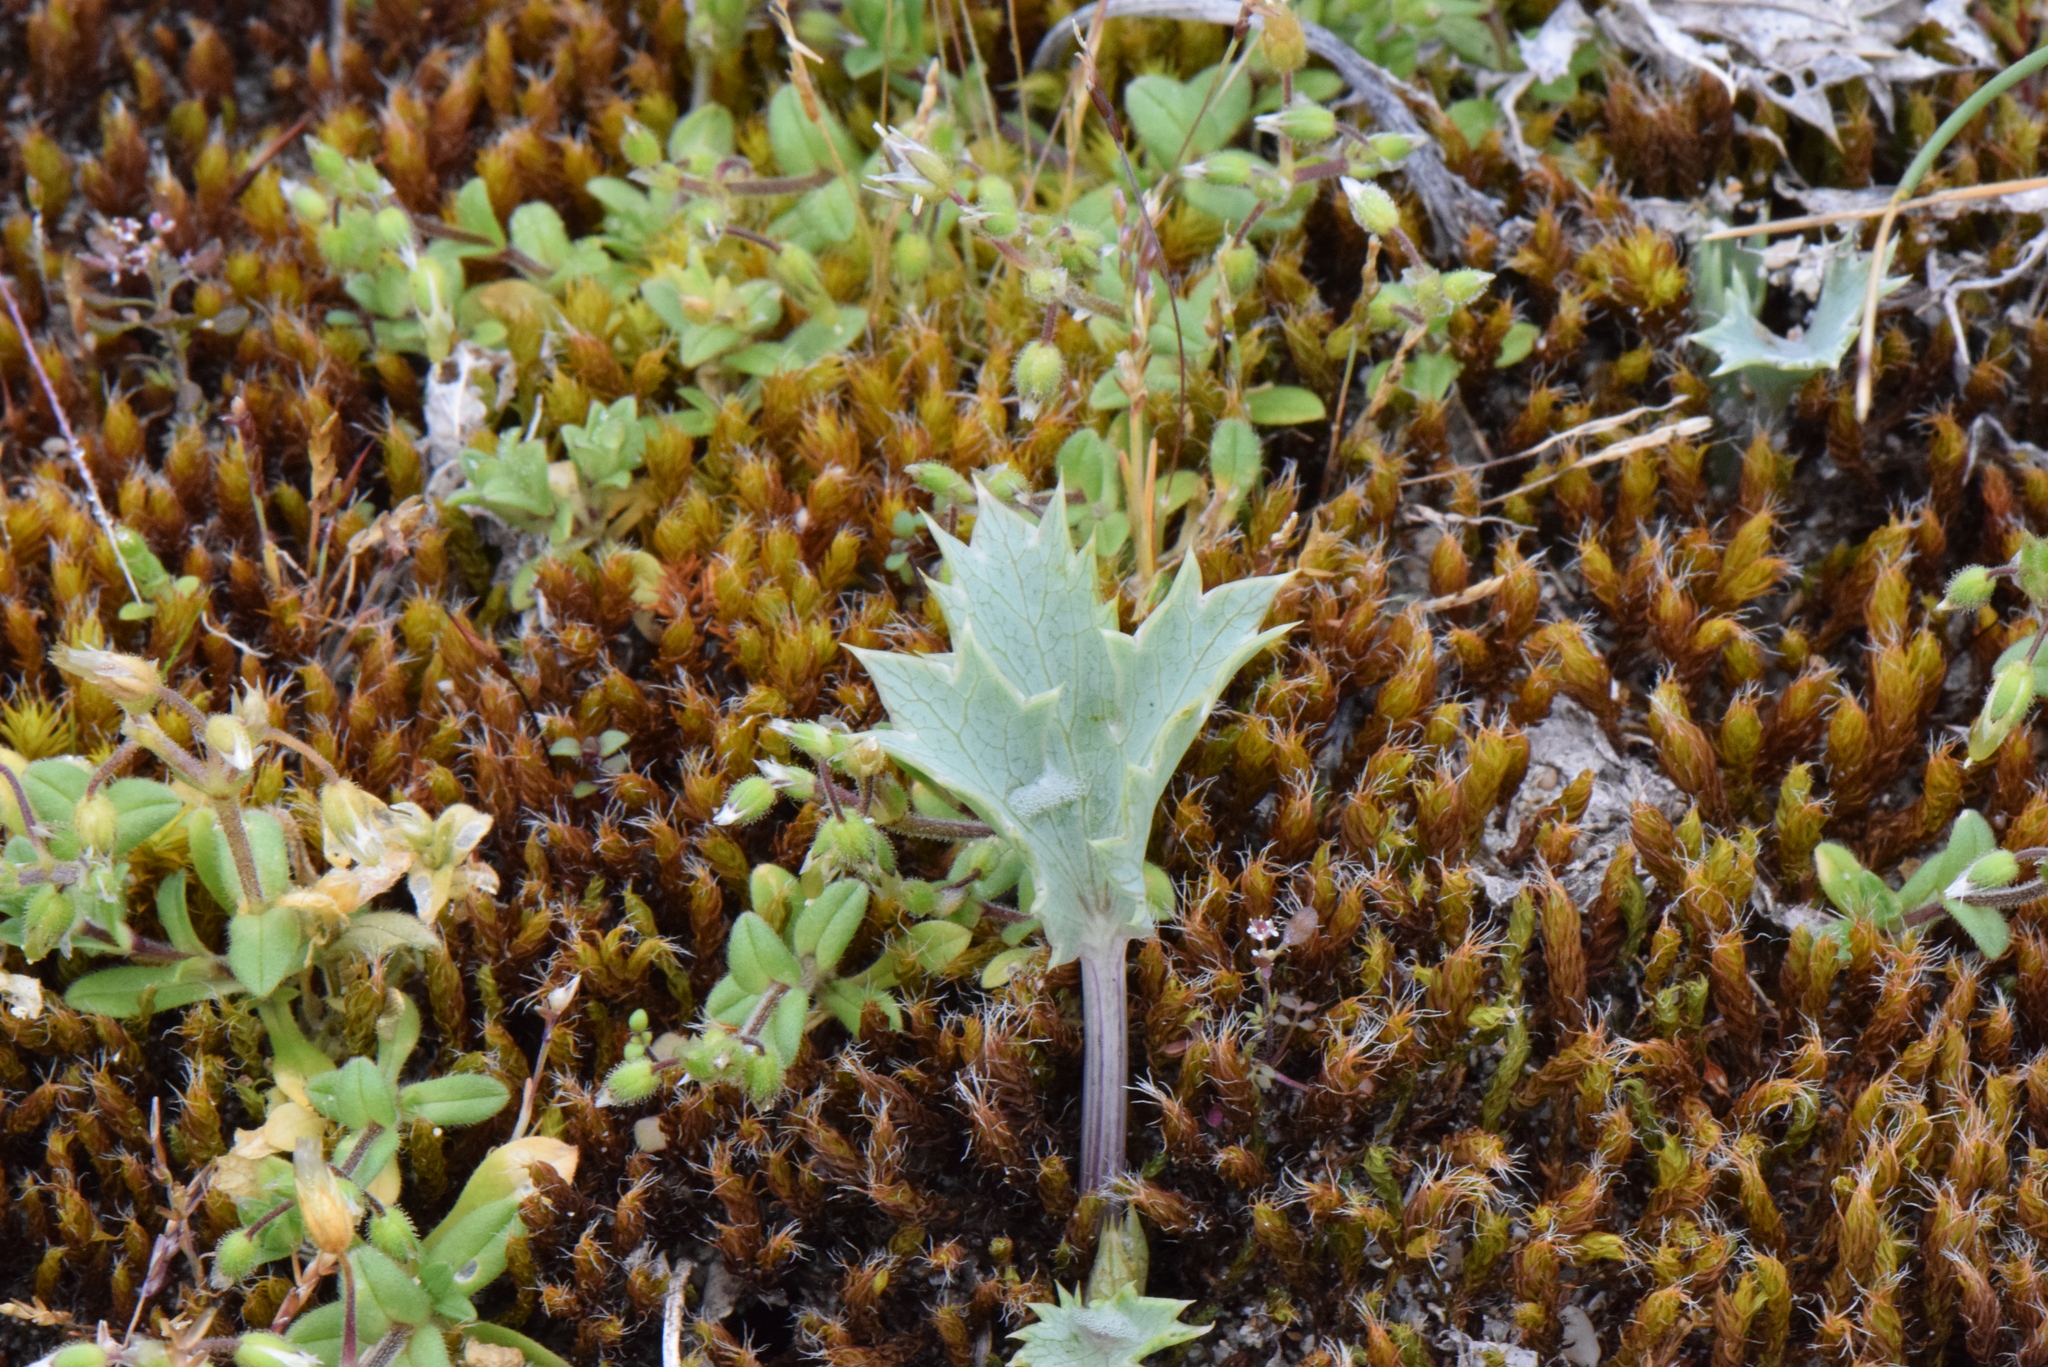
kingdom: Plantae
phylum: Tracheophyta
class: Magnoliopsida
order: Apiales
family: Apiaceae
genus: Eryngium
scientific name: Eryngium maritimum
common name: Sea-holly
